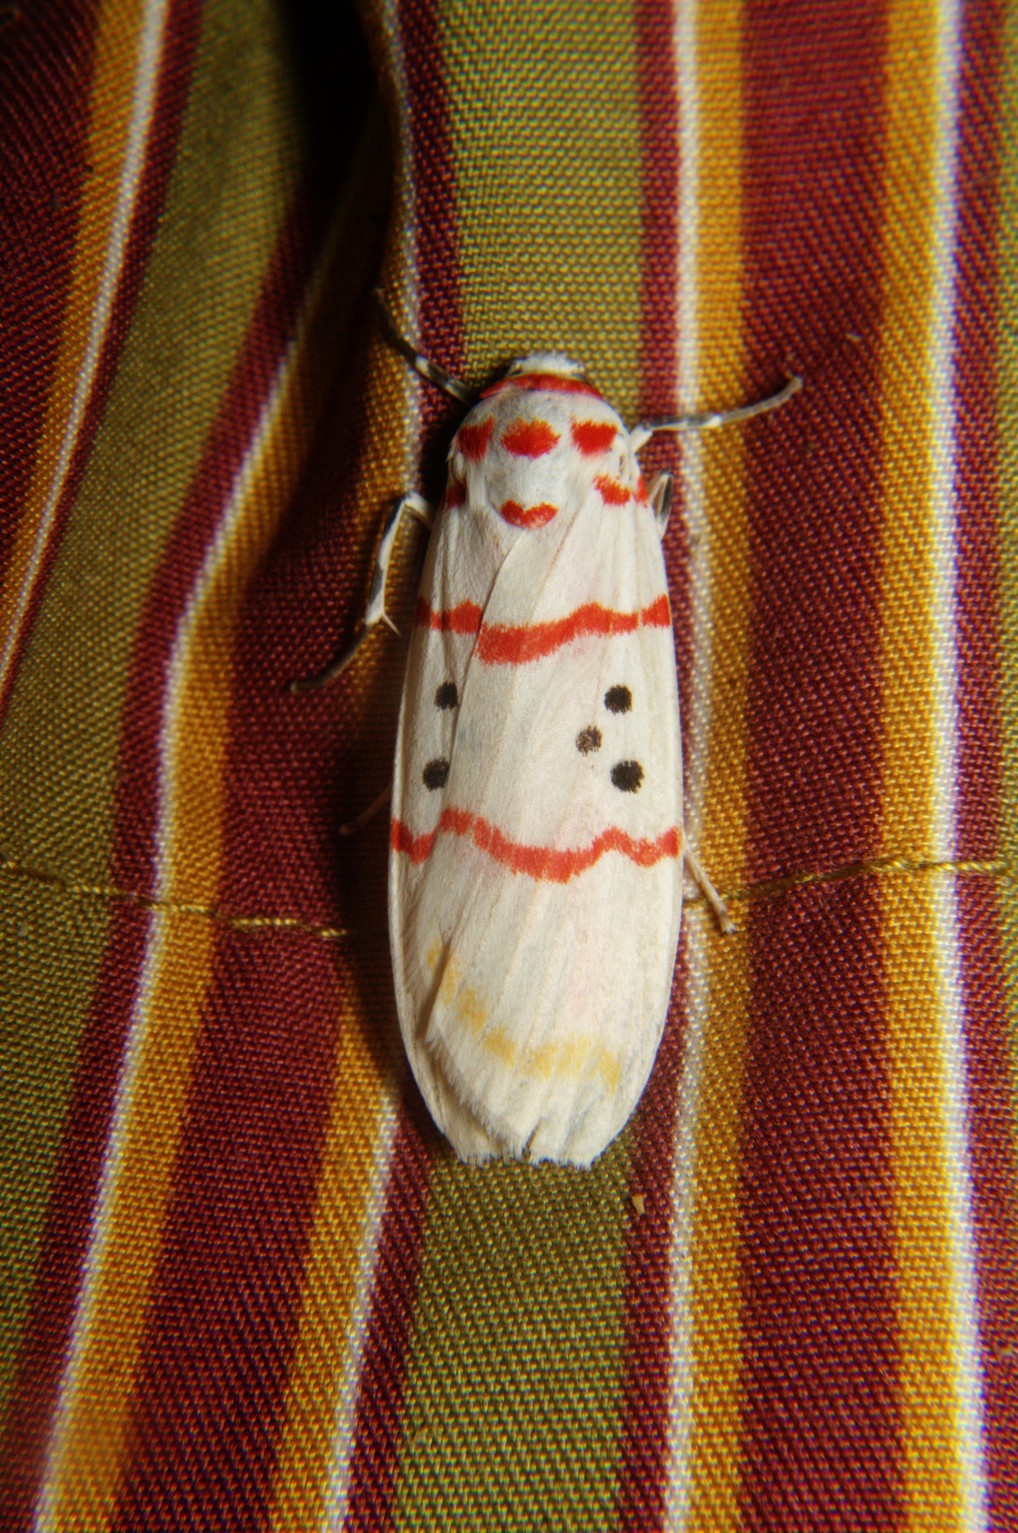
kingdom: Animalia
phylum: Arthropoda
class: Insecta
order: Lepidoptera
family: Erebidae
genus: Cyana
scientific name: Cyana bellissima
